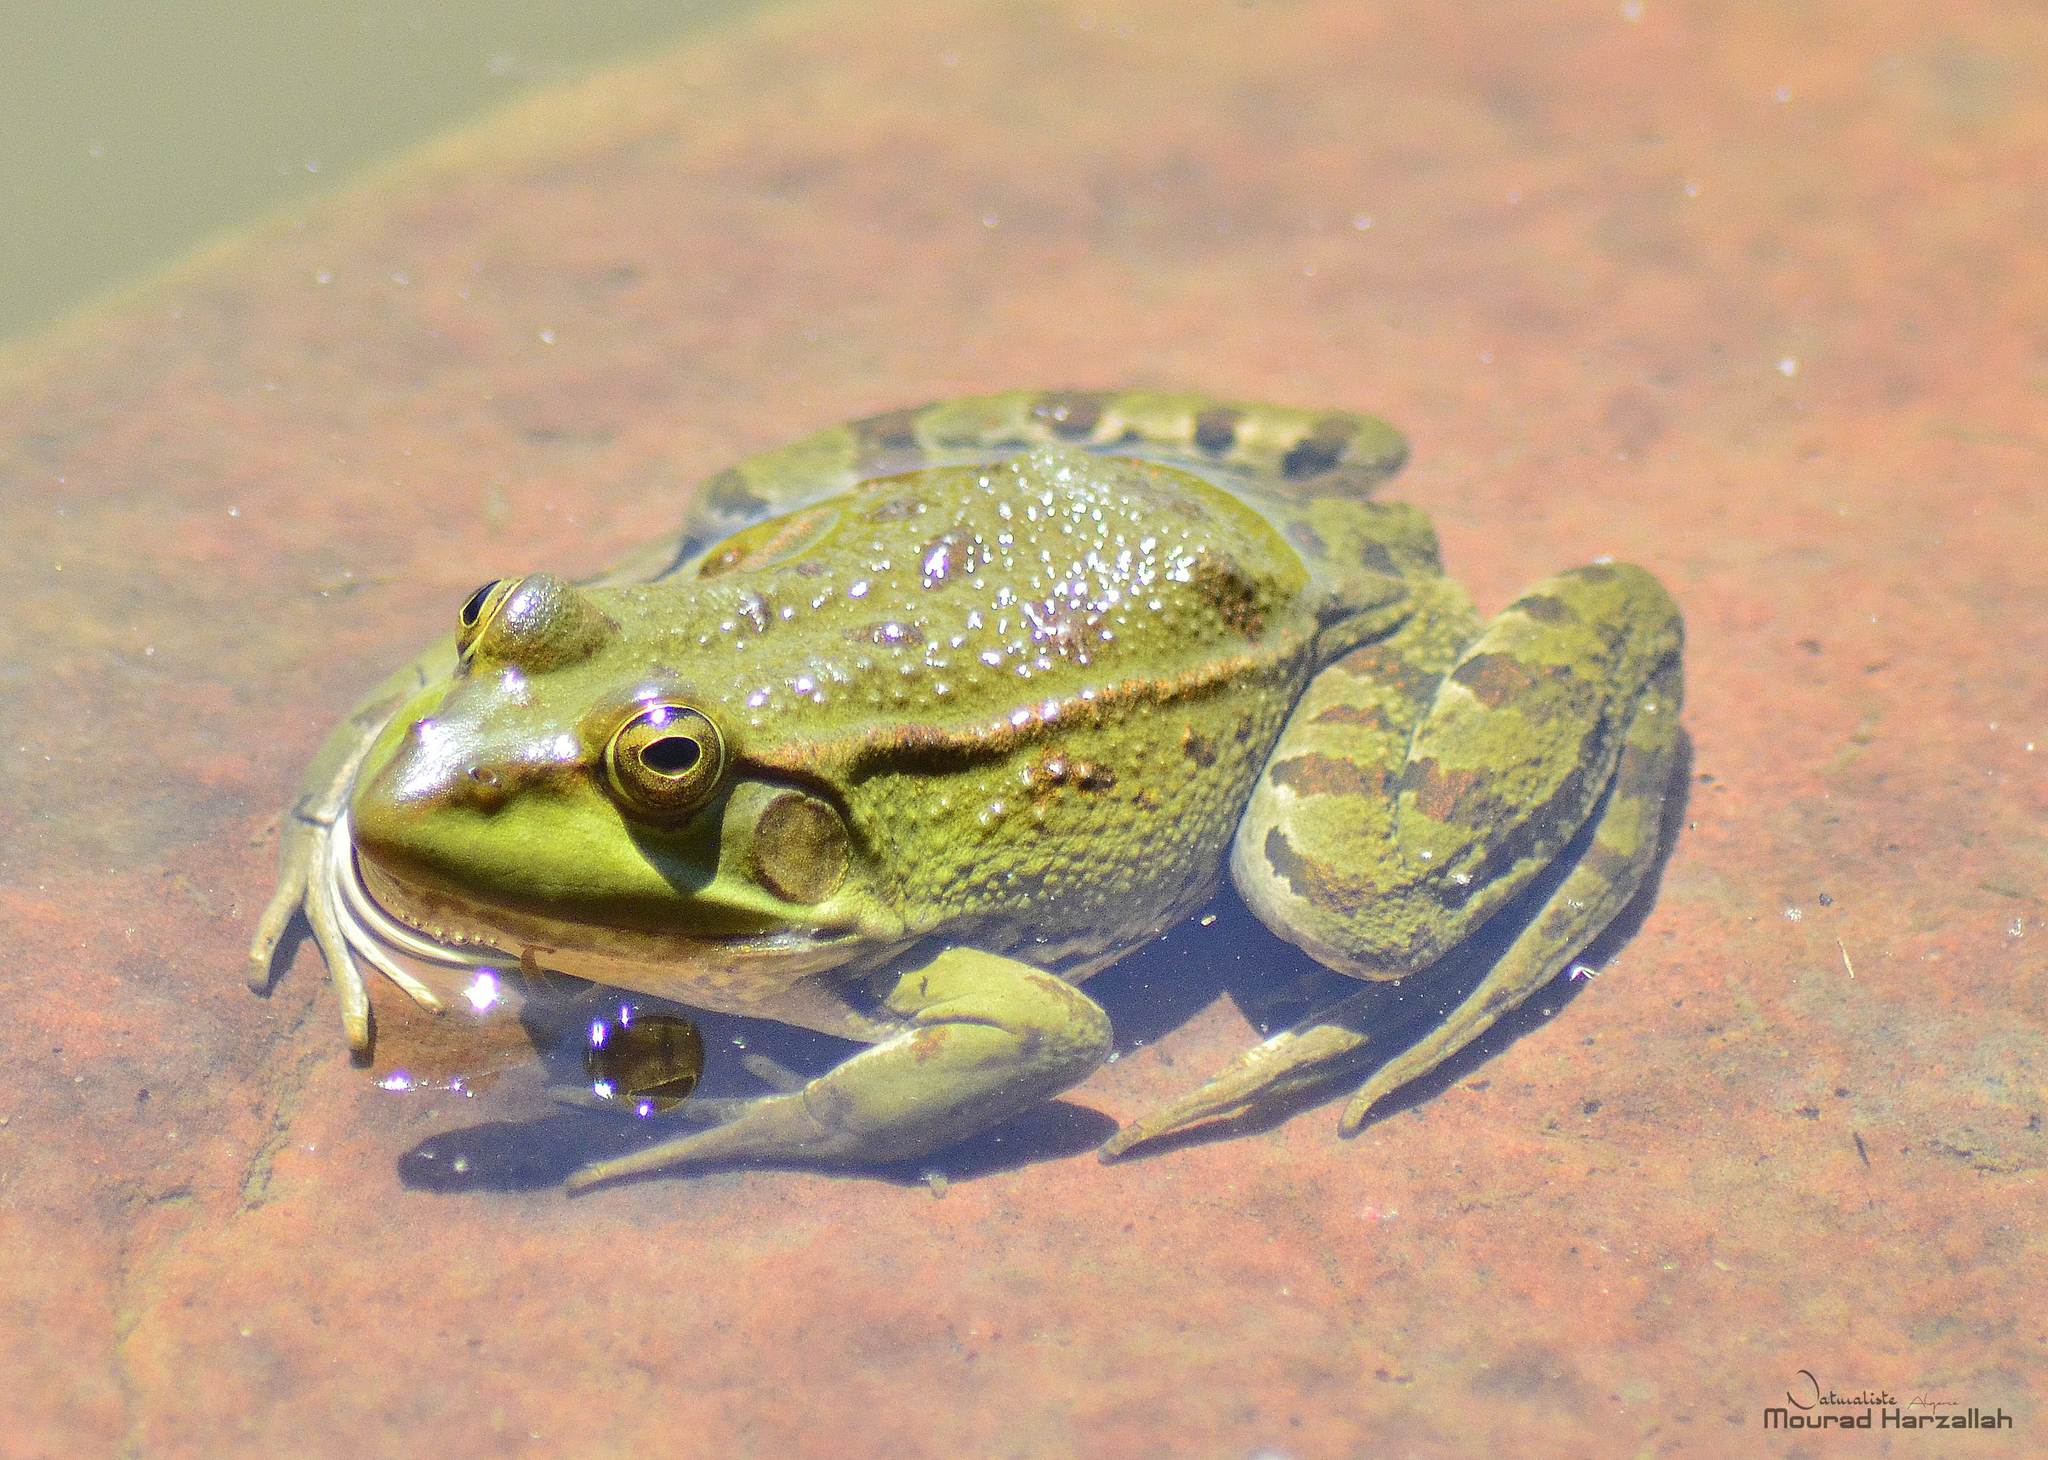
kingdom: Animalia
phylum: Chordata
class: Amphibia
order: Anura
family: Ranidae
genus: Pelophylax
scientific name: Pelophylax saharicus
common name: Sahara frog
